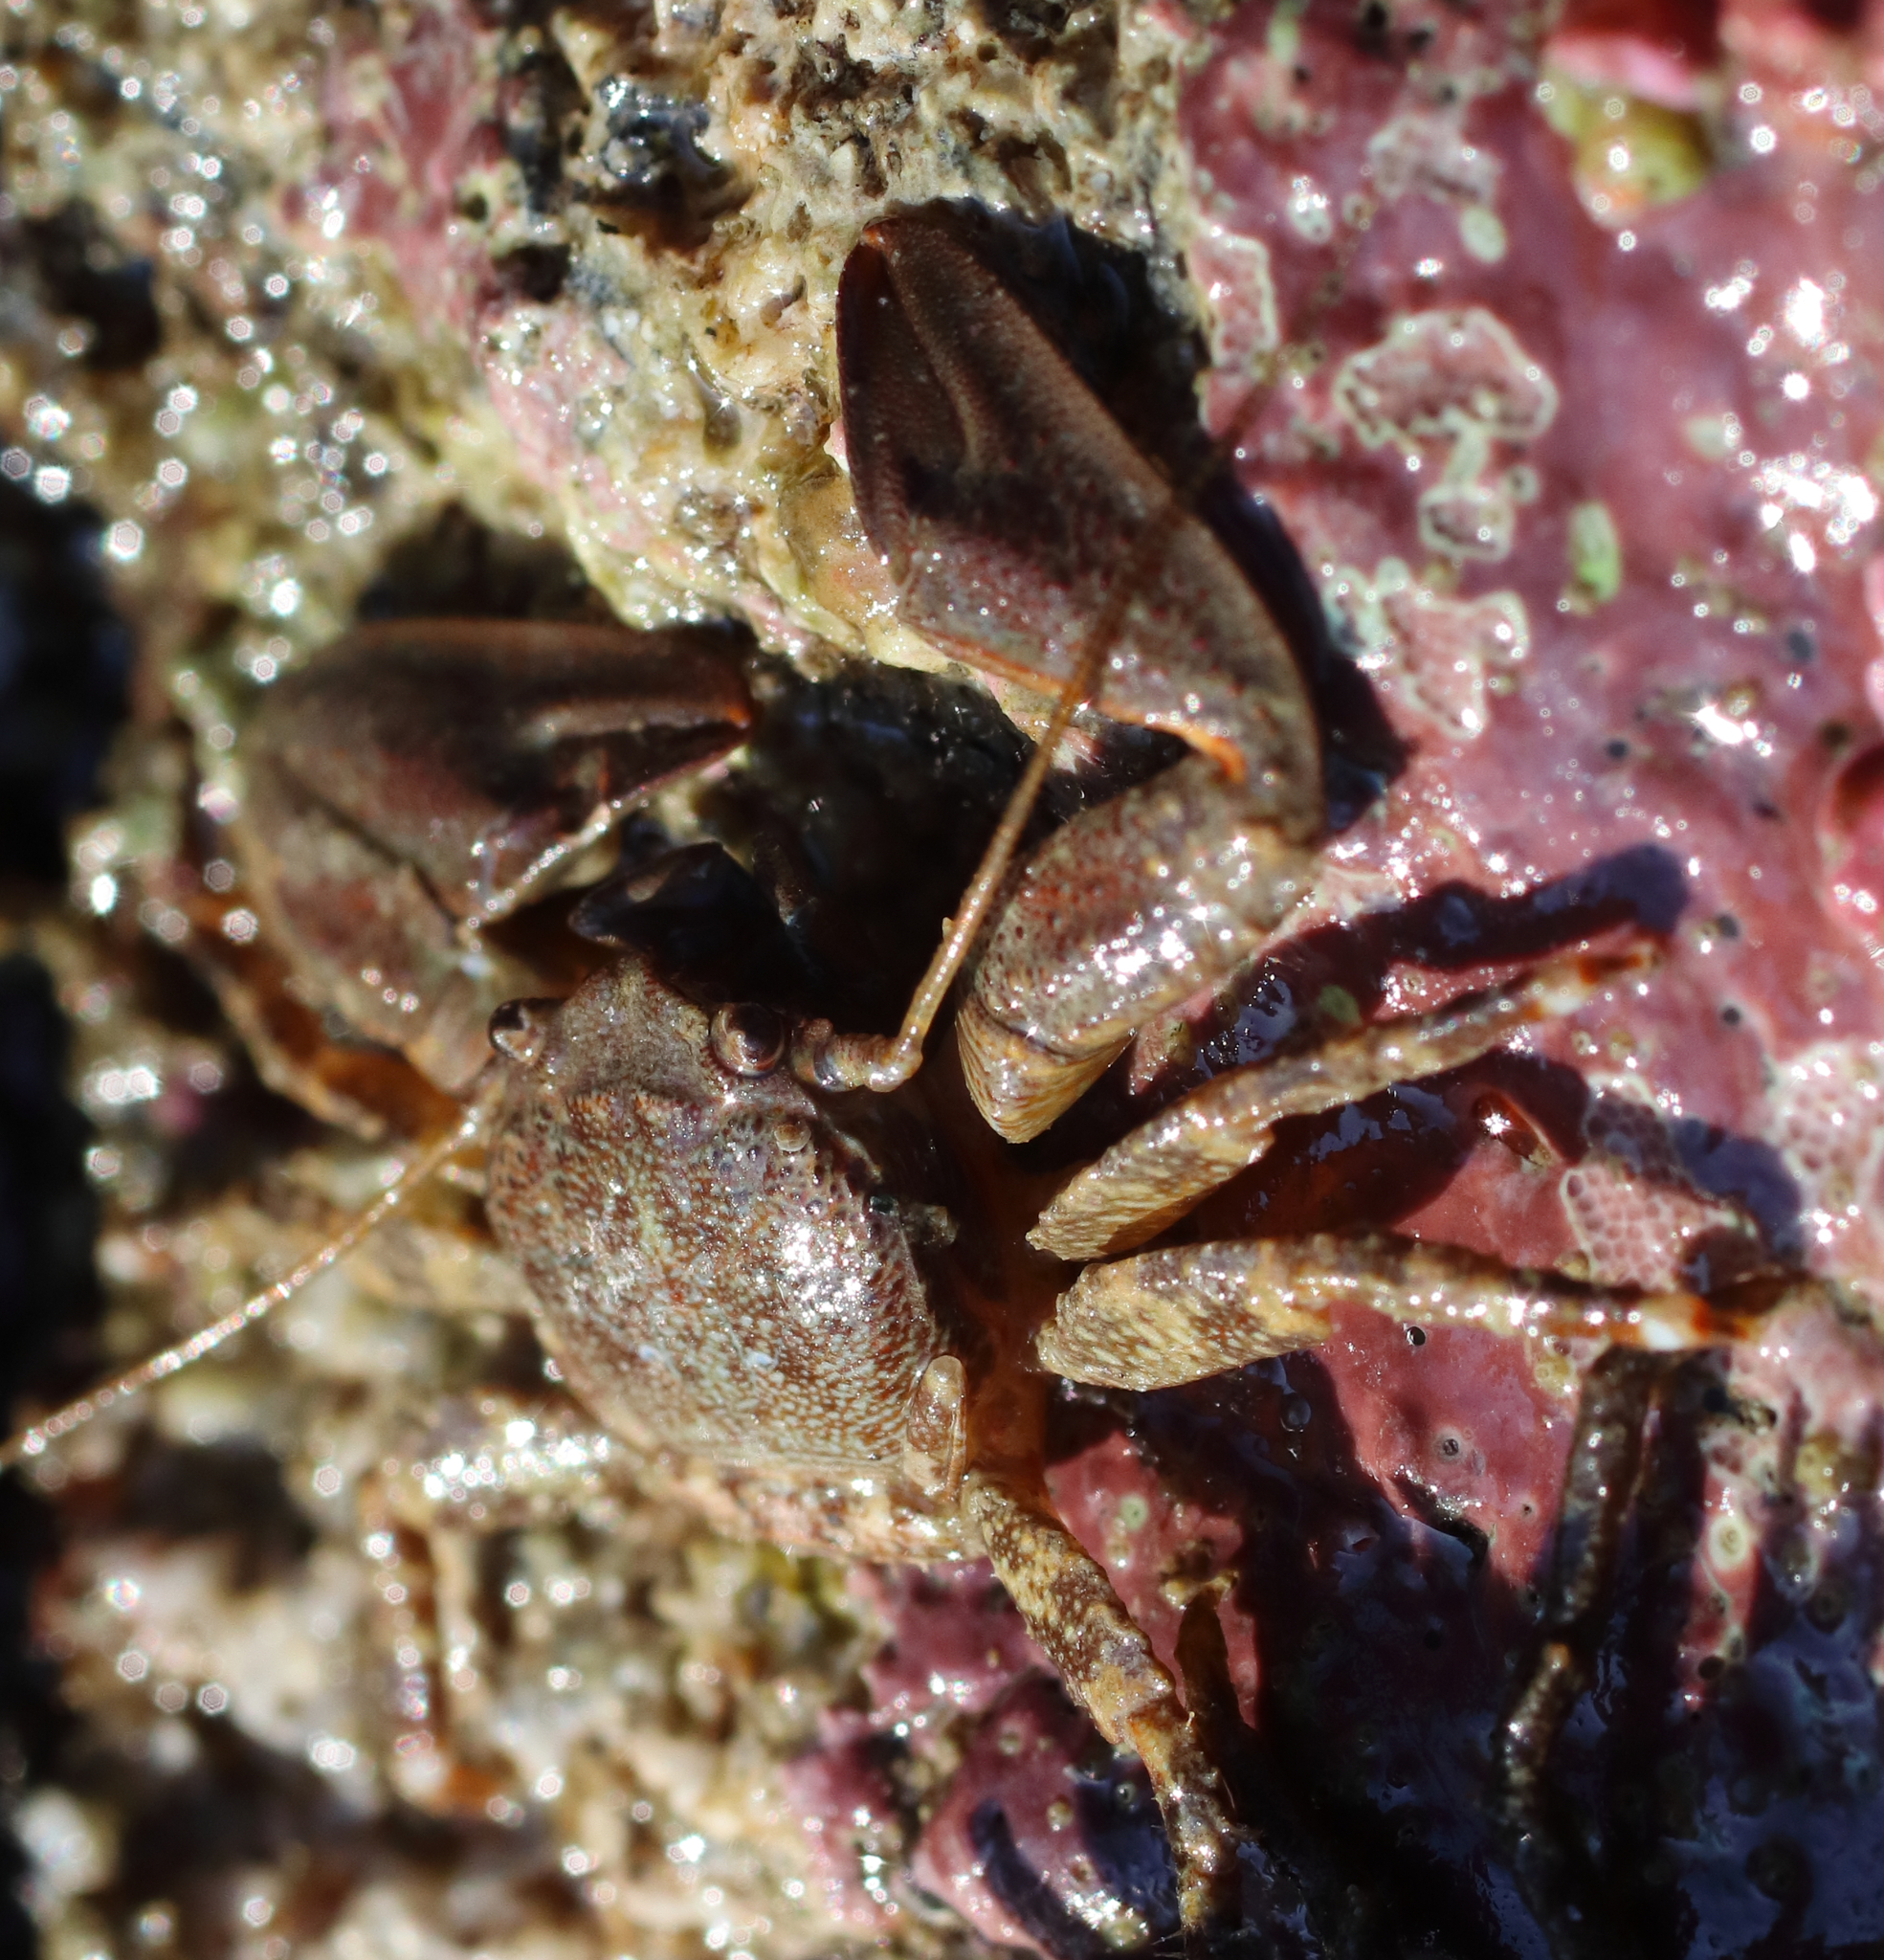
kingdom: Animalia
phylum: Arthropoda
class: Malacostraca
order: Decapoda
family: Porcellanidae
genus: Petrolisthes
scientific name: Petrolisthes eriomerus
